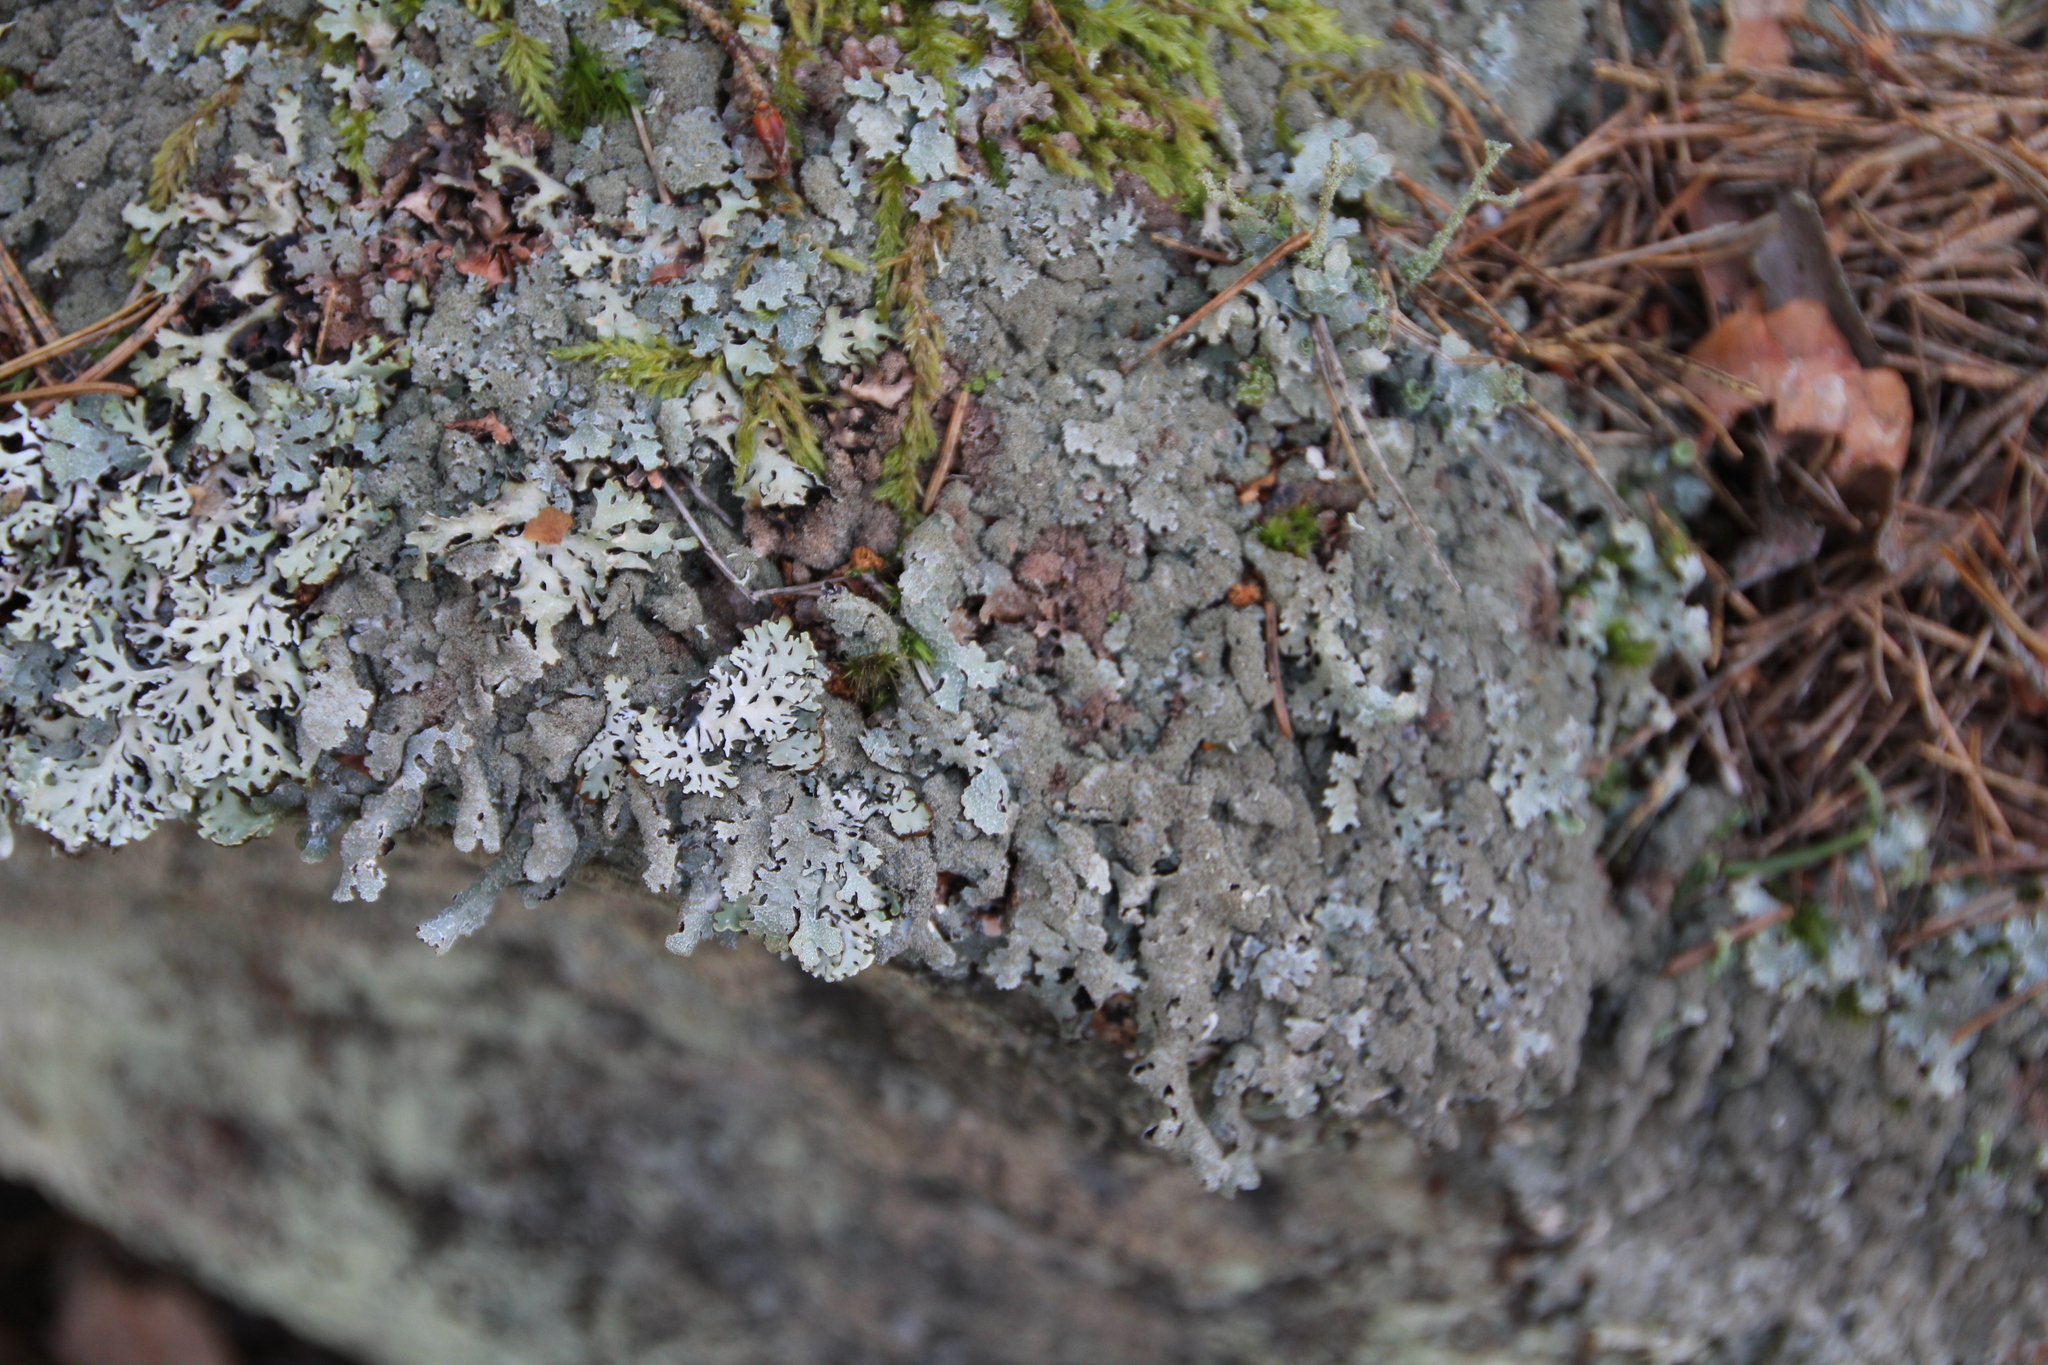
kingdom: Fungi
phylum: Ascomycota
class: Lecanoromycetes
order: Lecanorales
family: Parmeliaceae
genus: Parmelia
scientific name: Parmelia saxatilis
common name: Salted shield lichen
